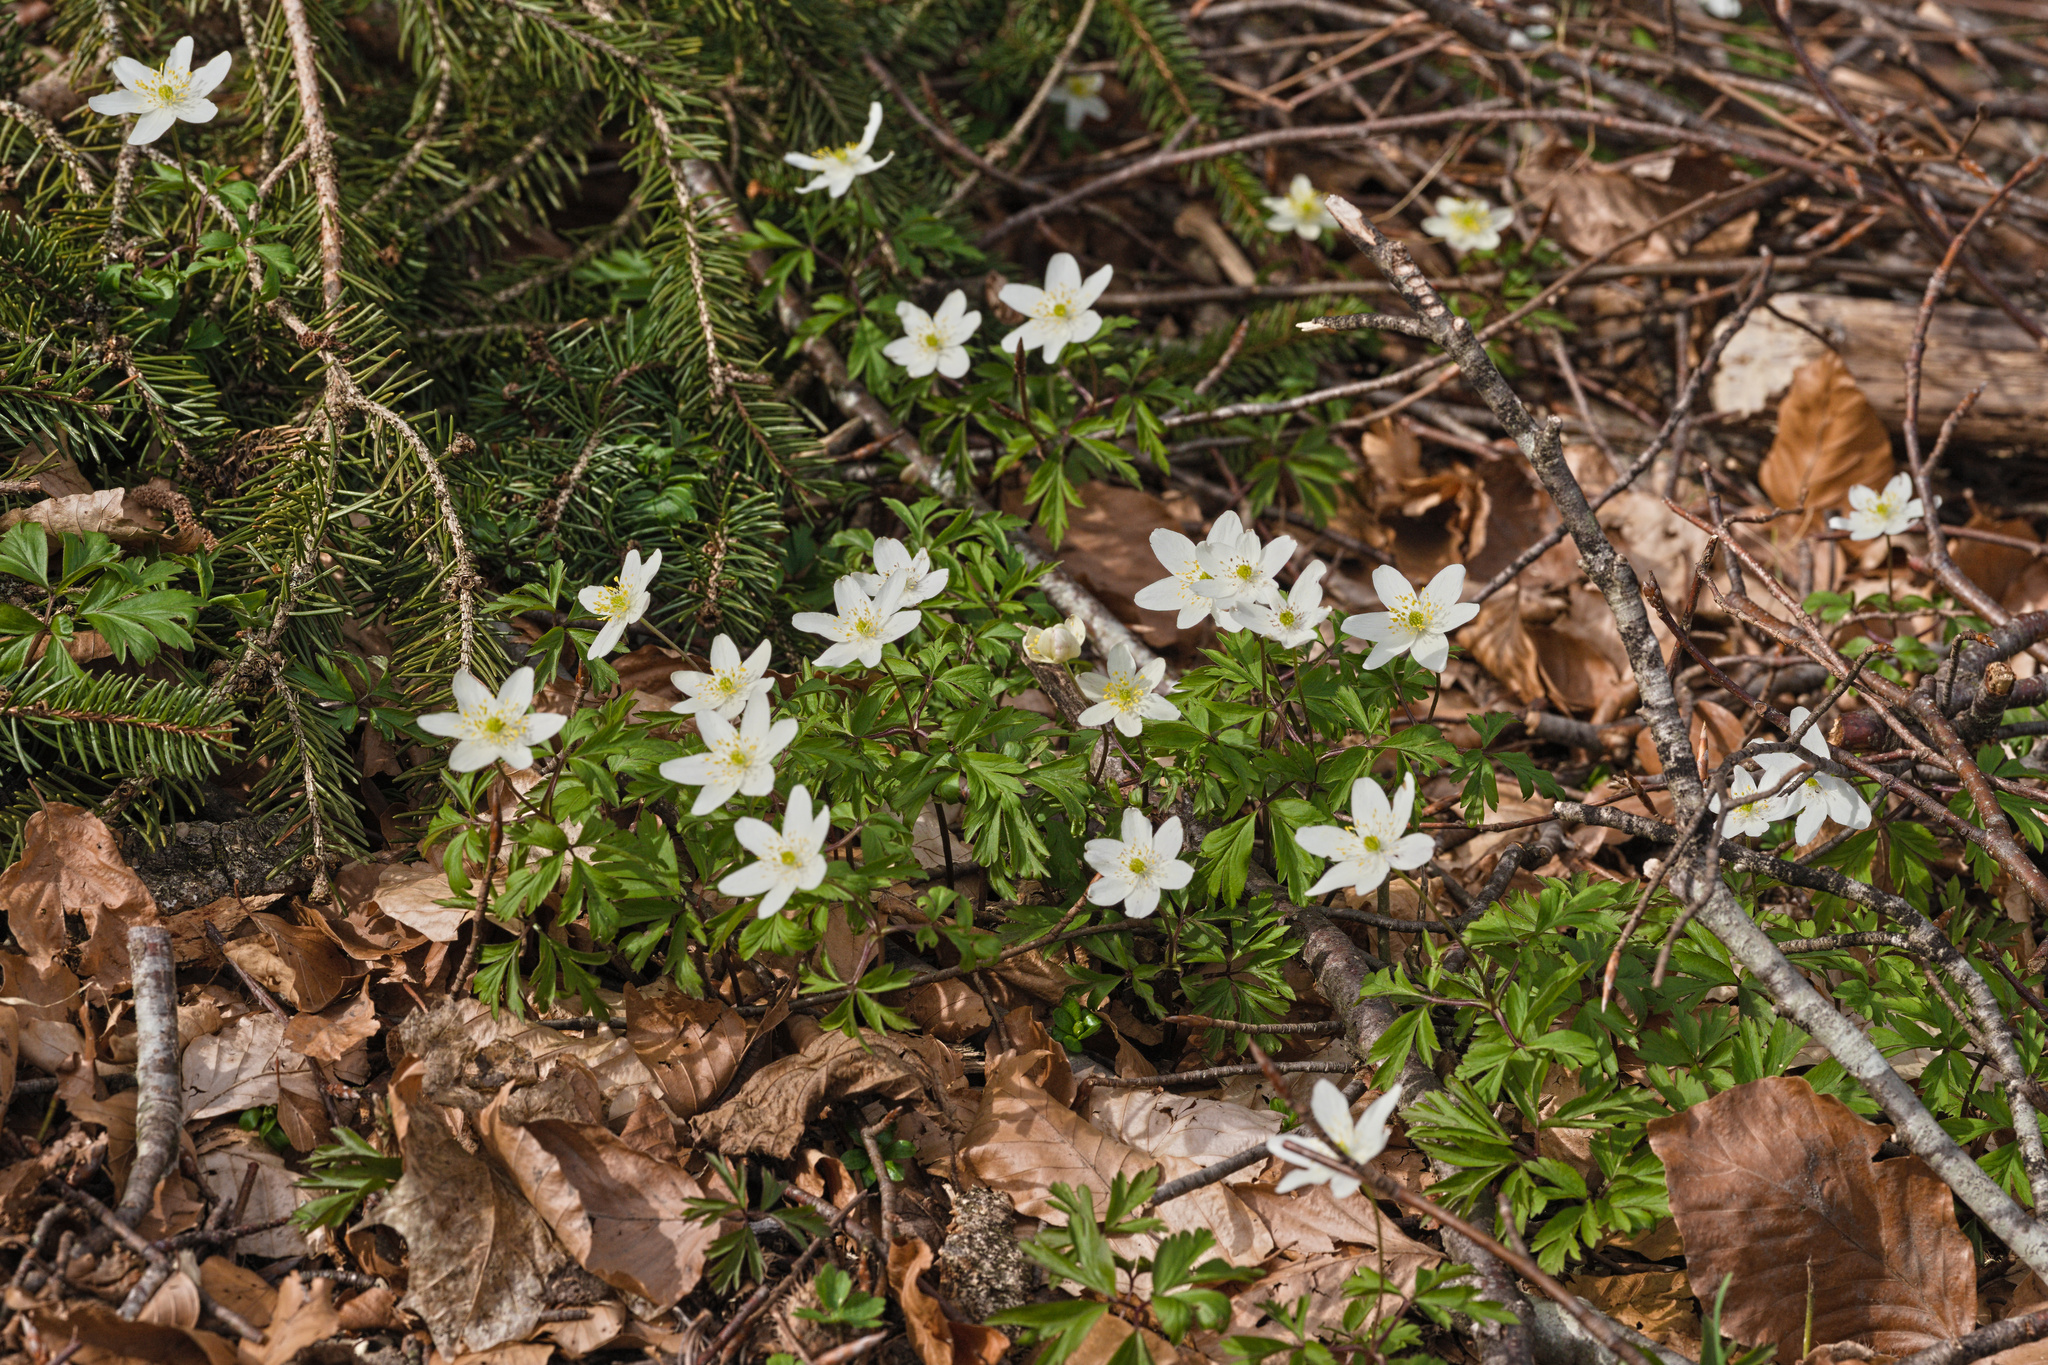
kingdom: Plantae
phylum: Tracheophyta
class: Magnoliopsida
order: Ranunculales
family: Ranunculaceae
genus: Anemone
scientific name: Anemone nemorosa
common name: Wood anemone
